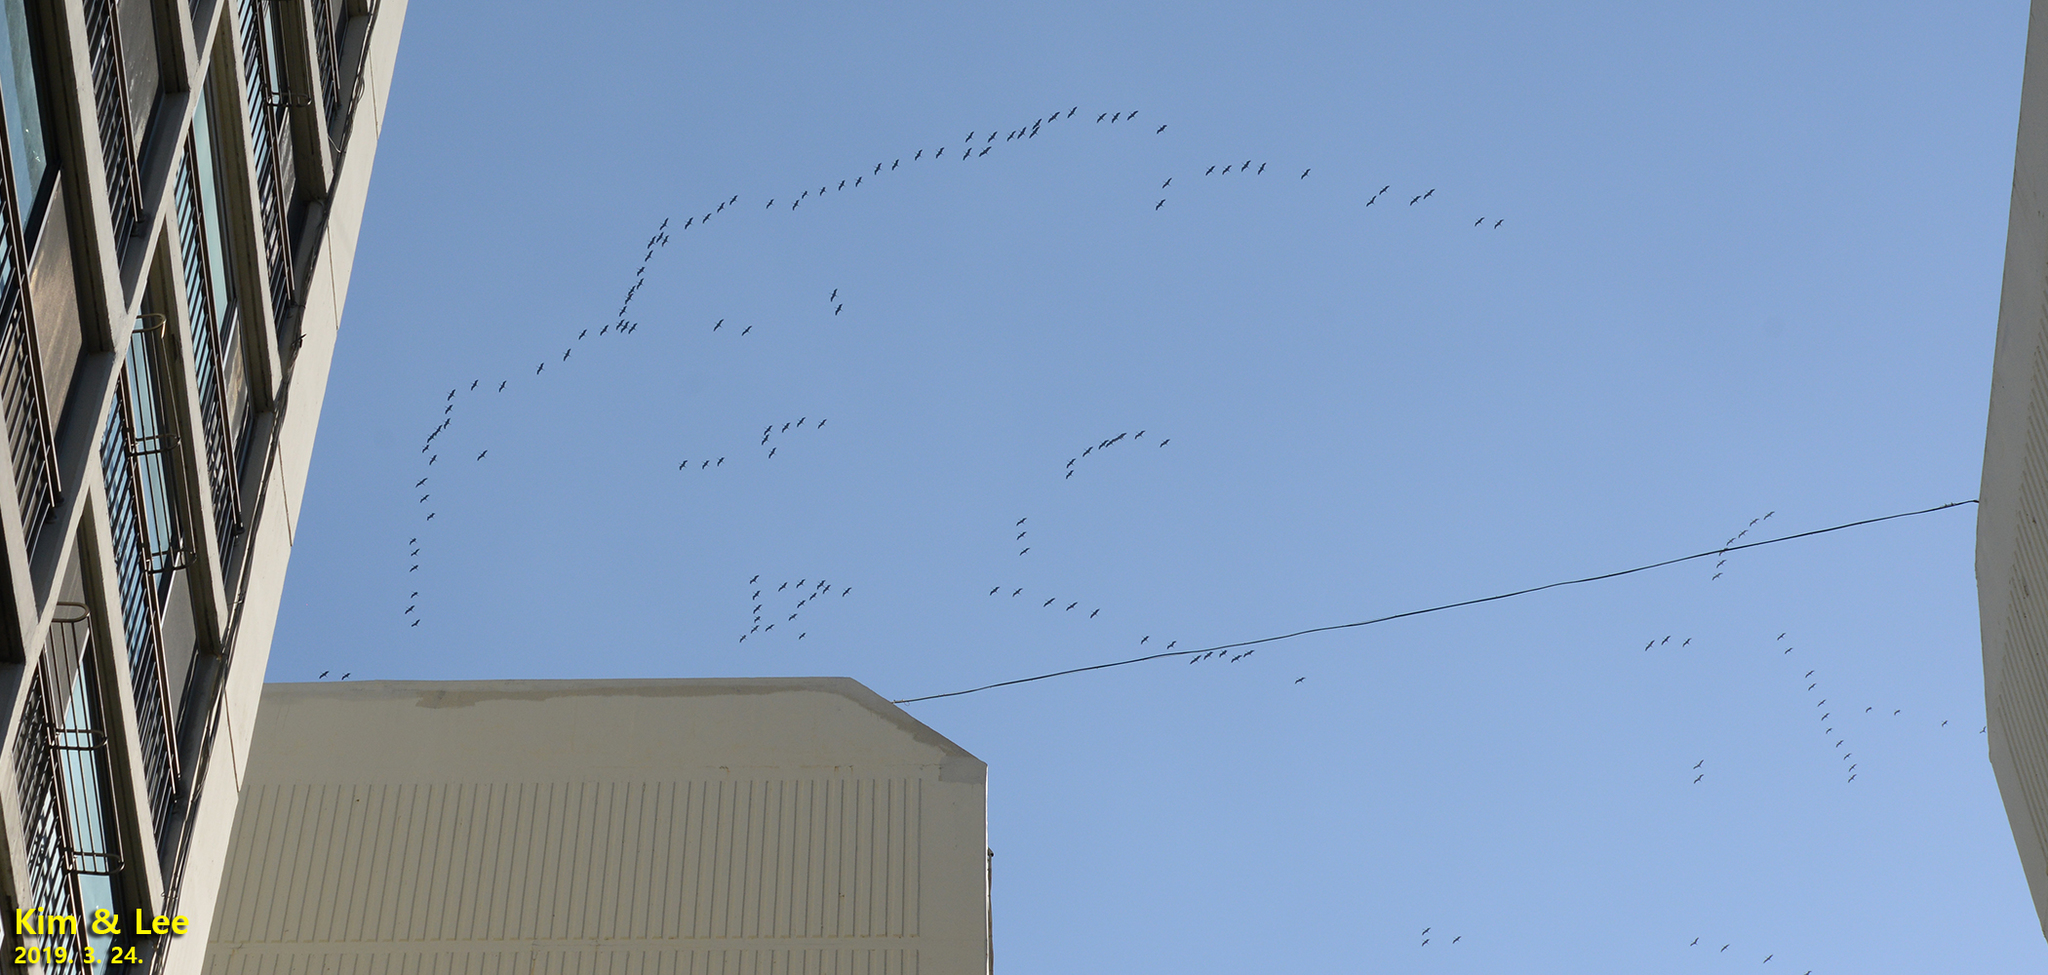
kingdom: Animalia
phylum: Chordata
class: Aves
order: Gruiformes
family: Gruidae
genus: Grus
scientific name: Grus monacha
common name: Hooded crane
